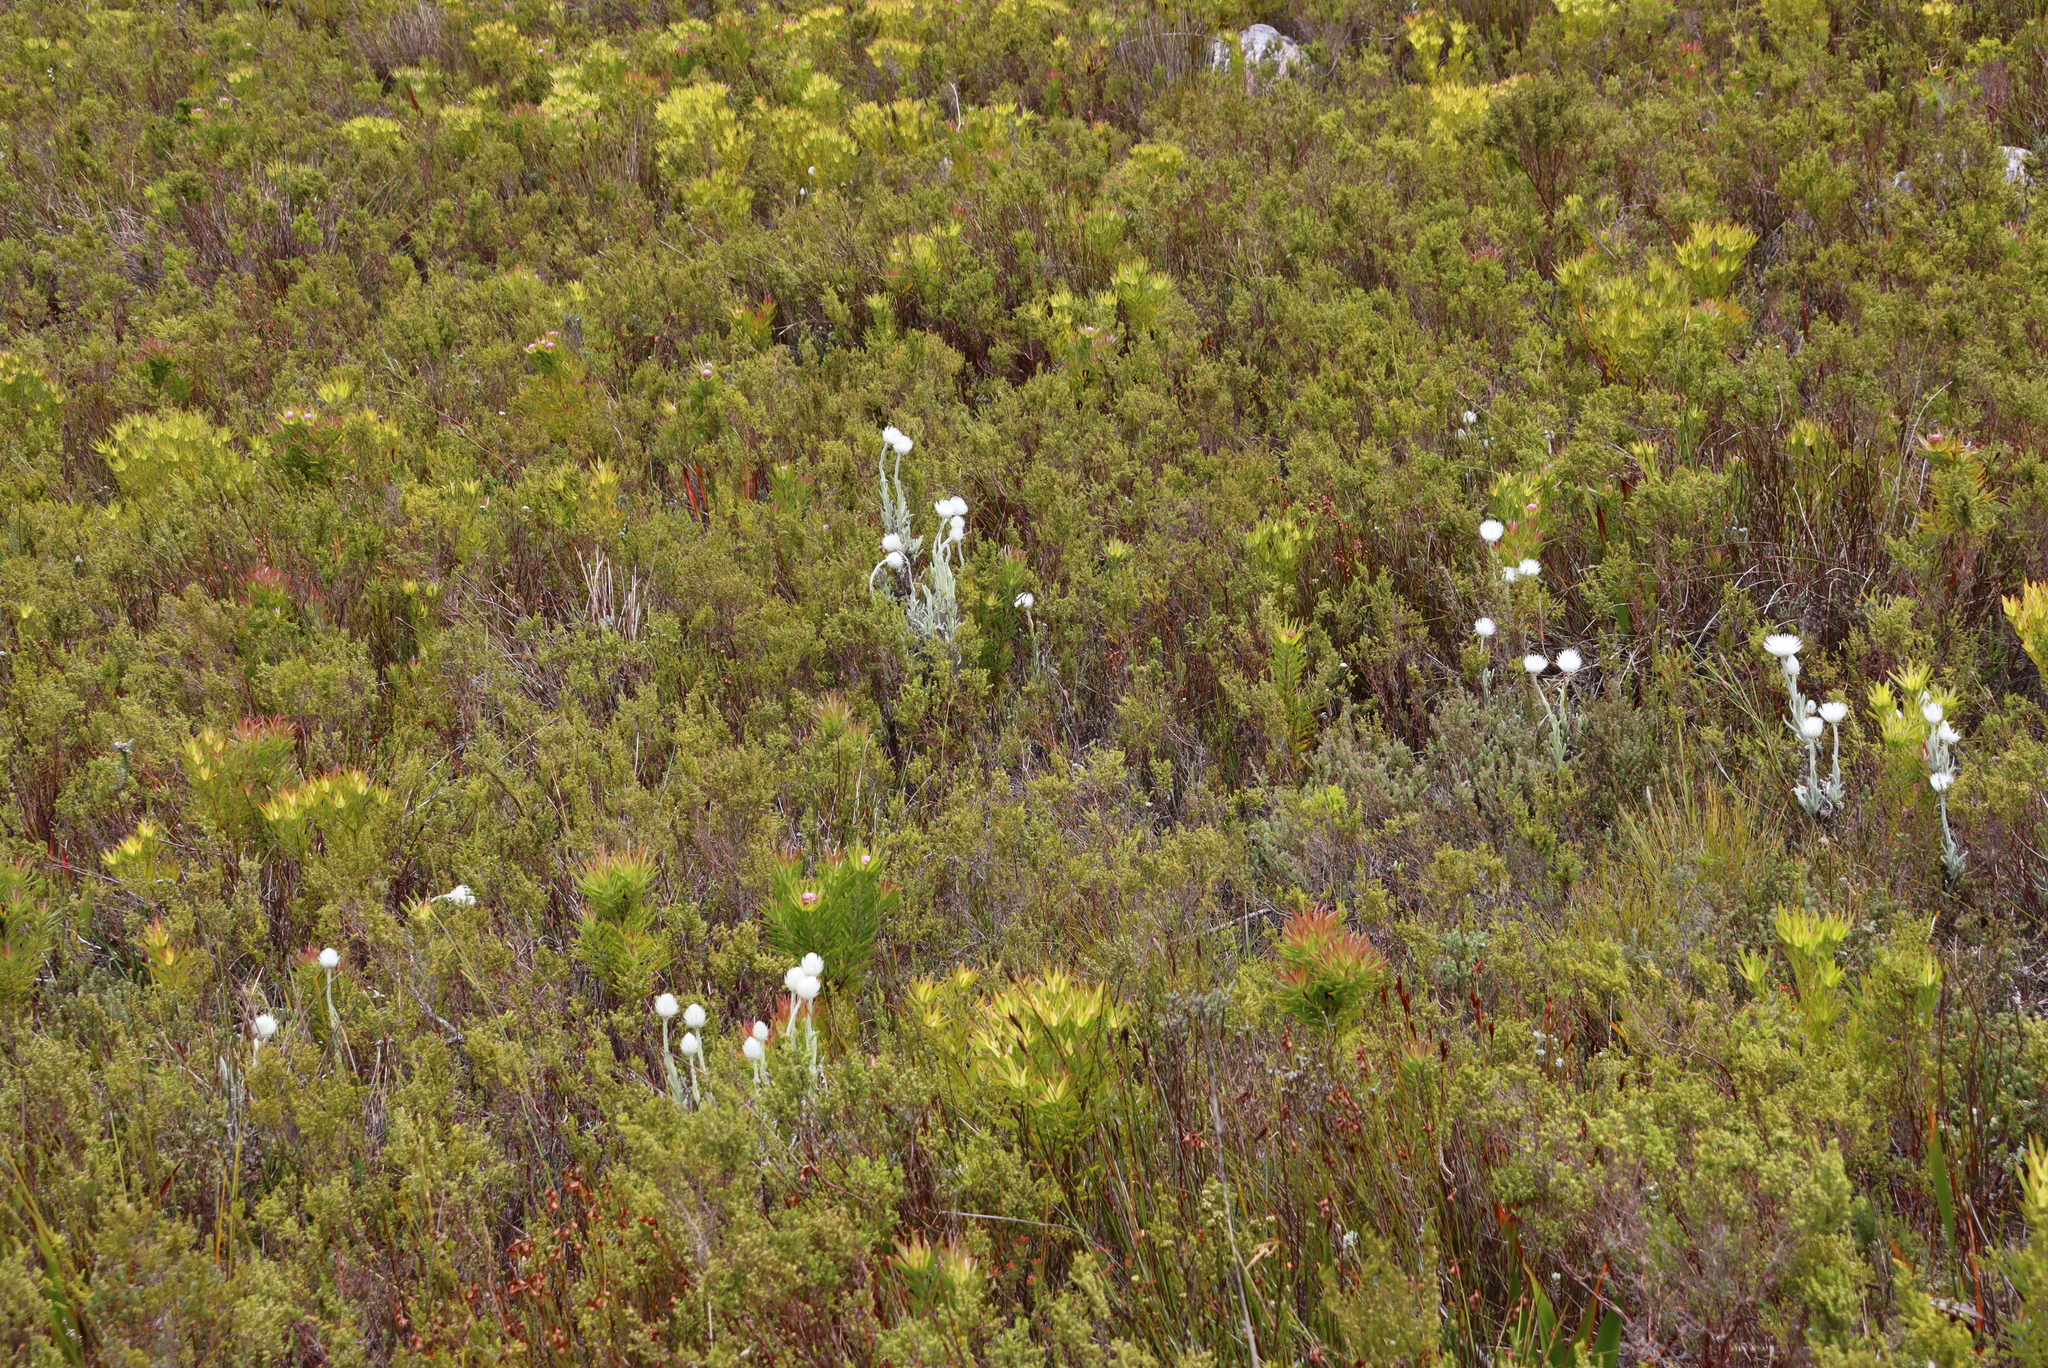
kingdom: Plantae
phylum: Tracheophyta
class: Magnoliopsida
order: Asterales
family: Asteraceae
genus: Syncarpha
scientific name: Syncarpha vestita
